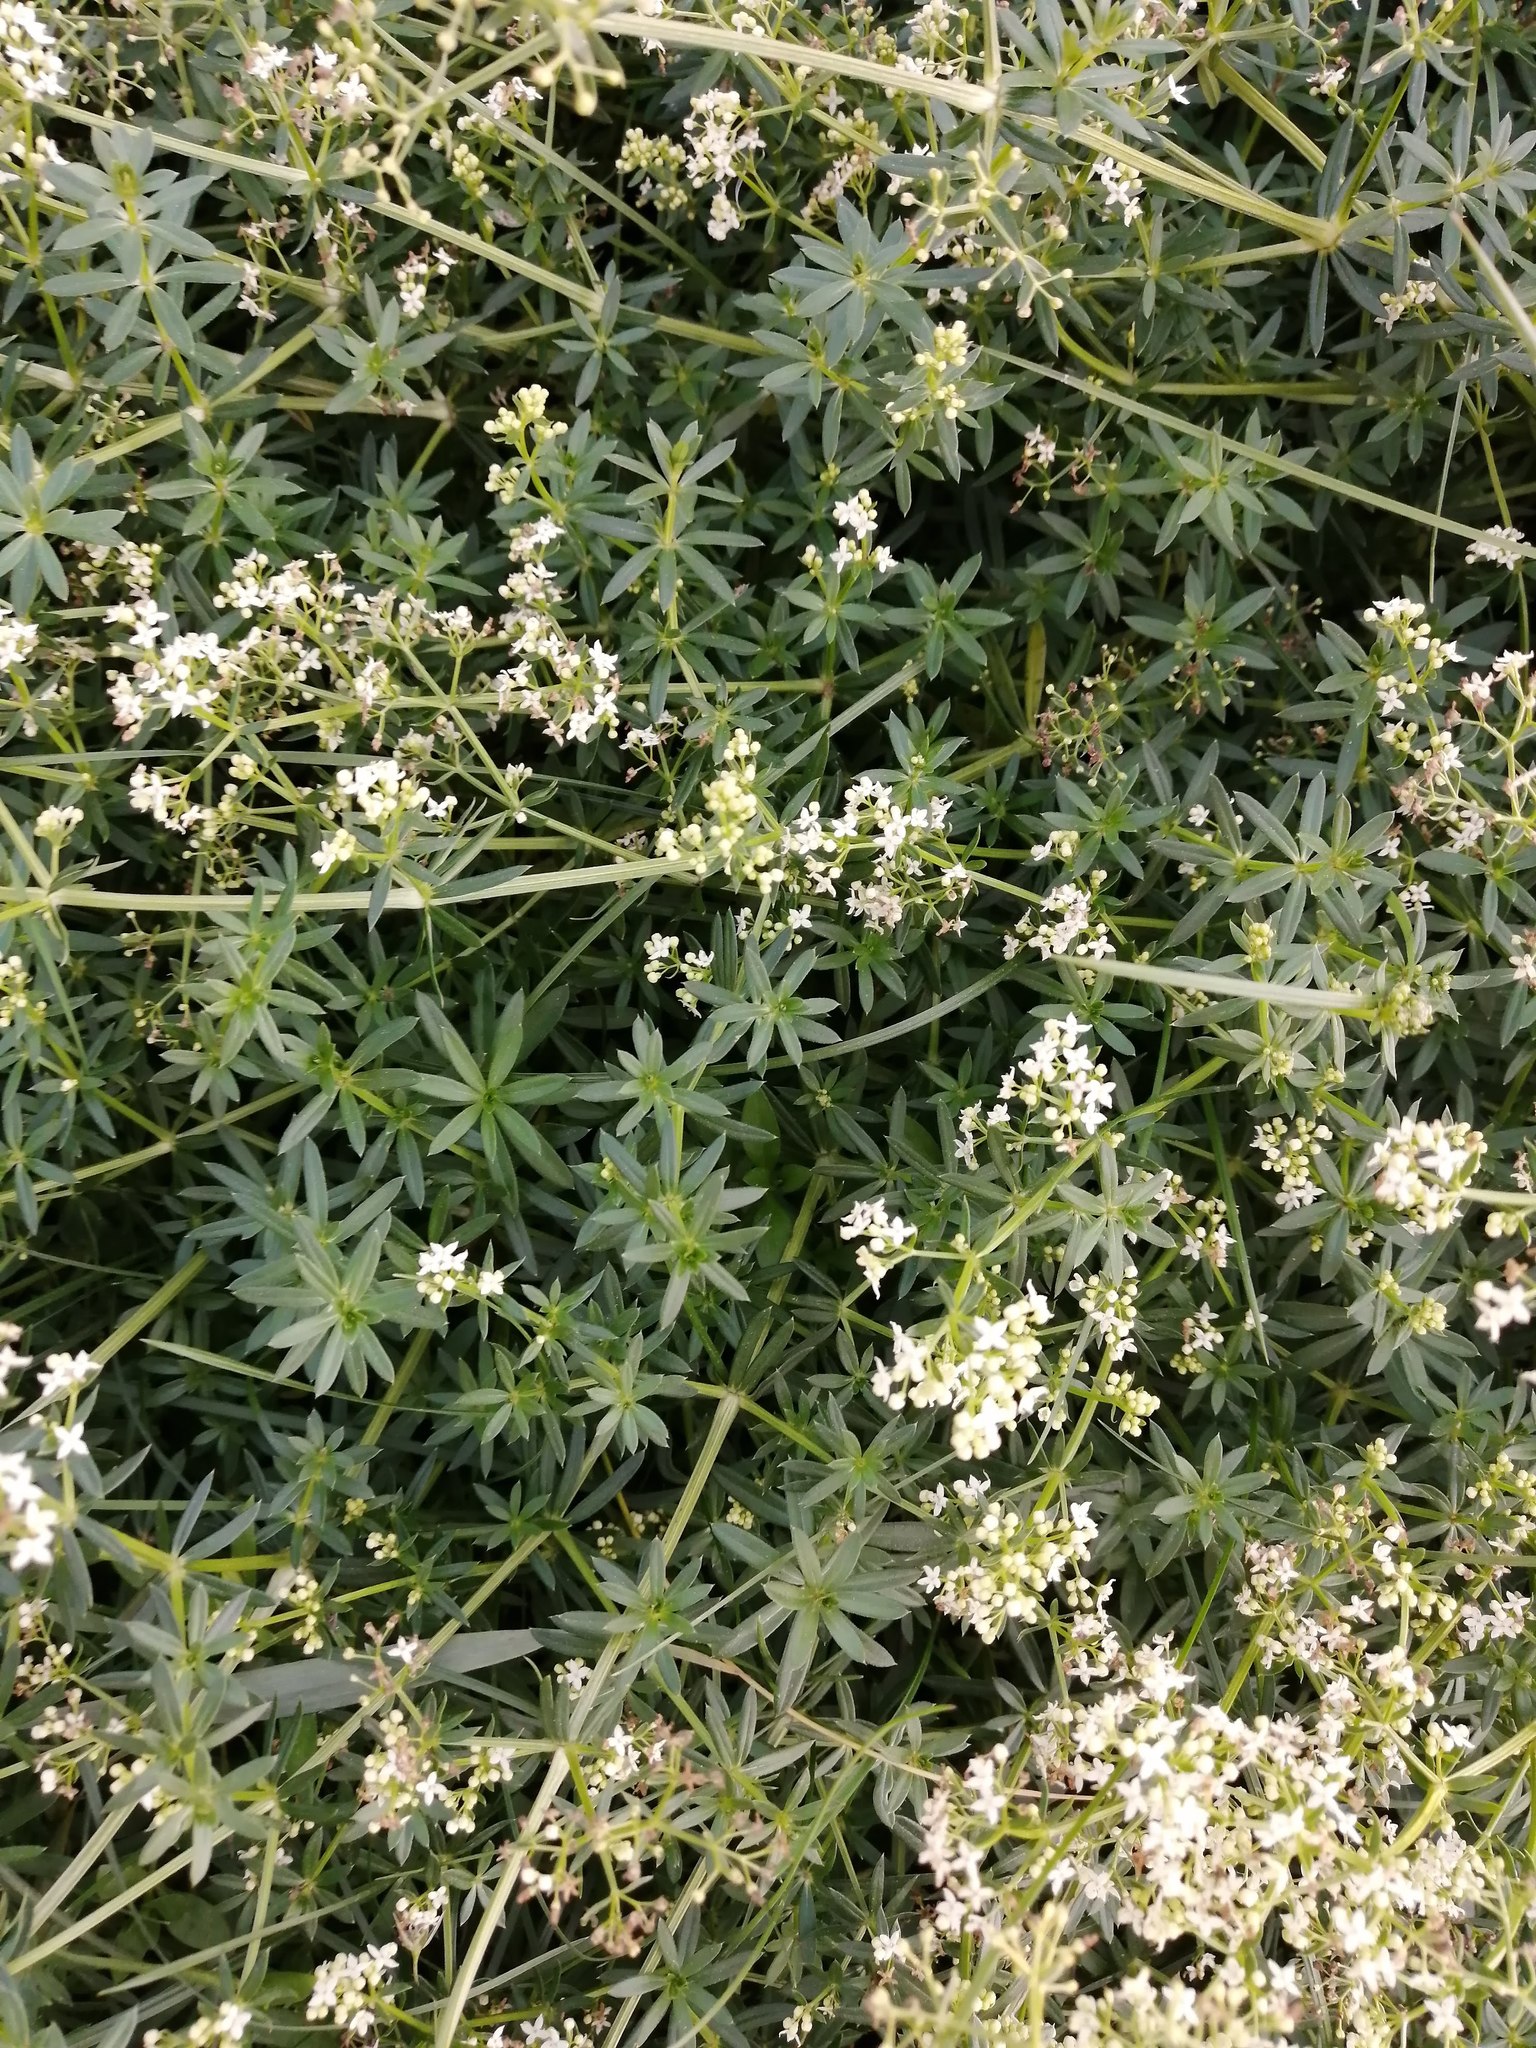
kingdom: Plantae
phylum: Tracheophyta
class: Magnoliopsida
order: Gentianales
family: Rubiaceae
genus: Galium
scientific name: Galium mollugo
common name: Hedge bedstraw
